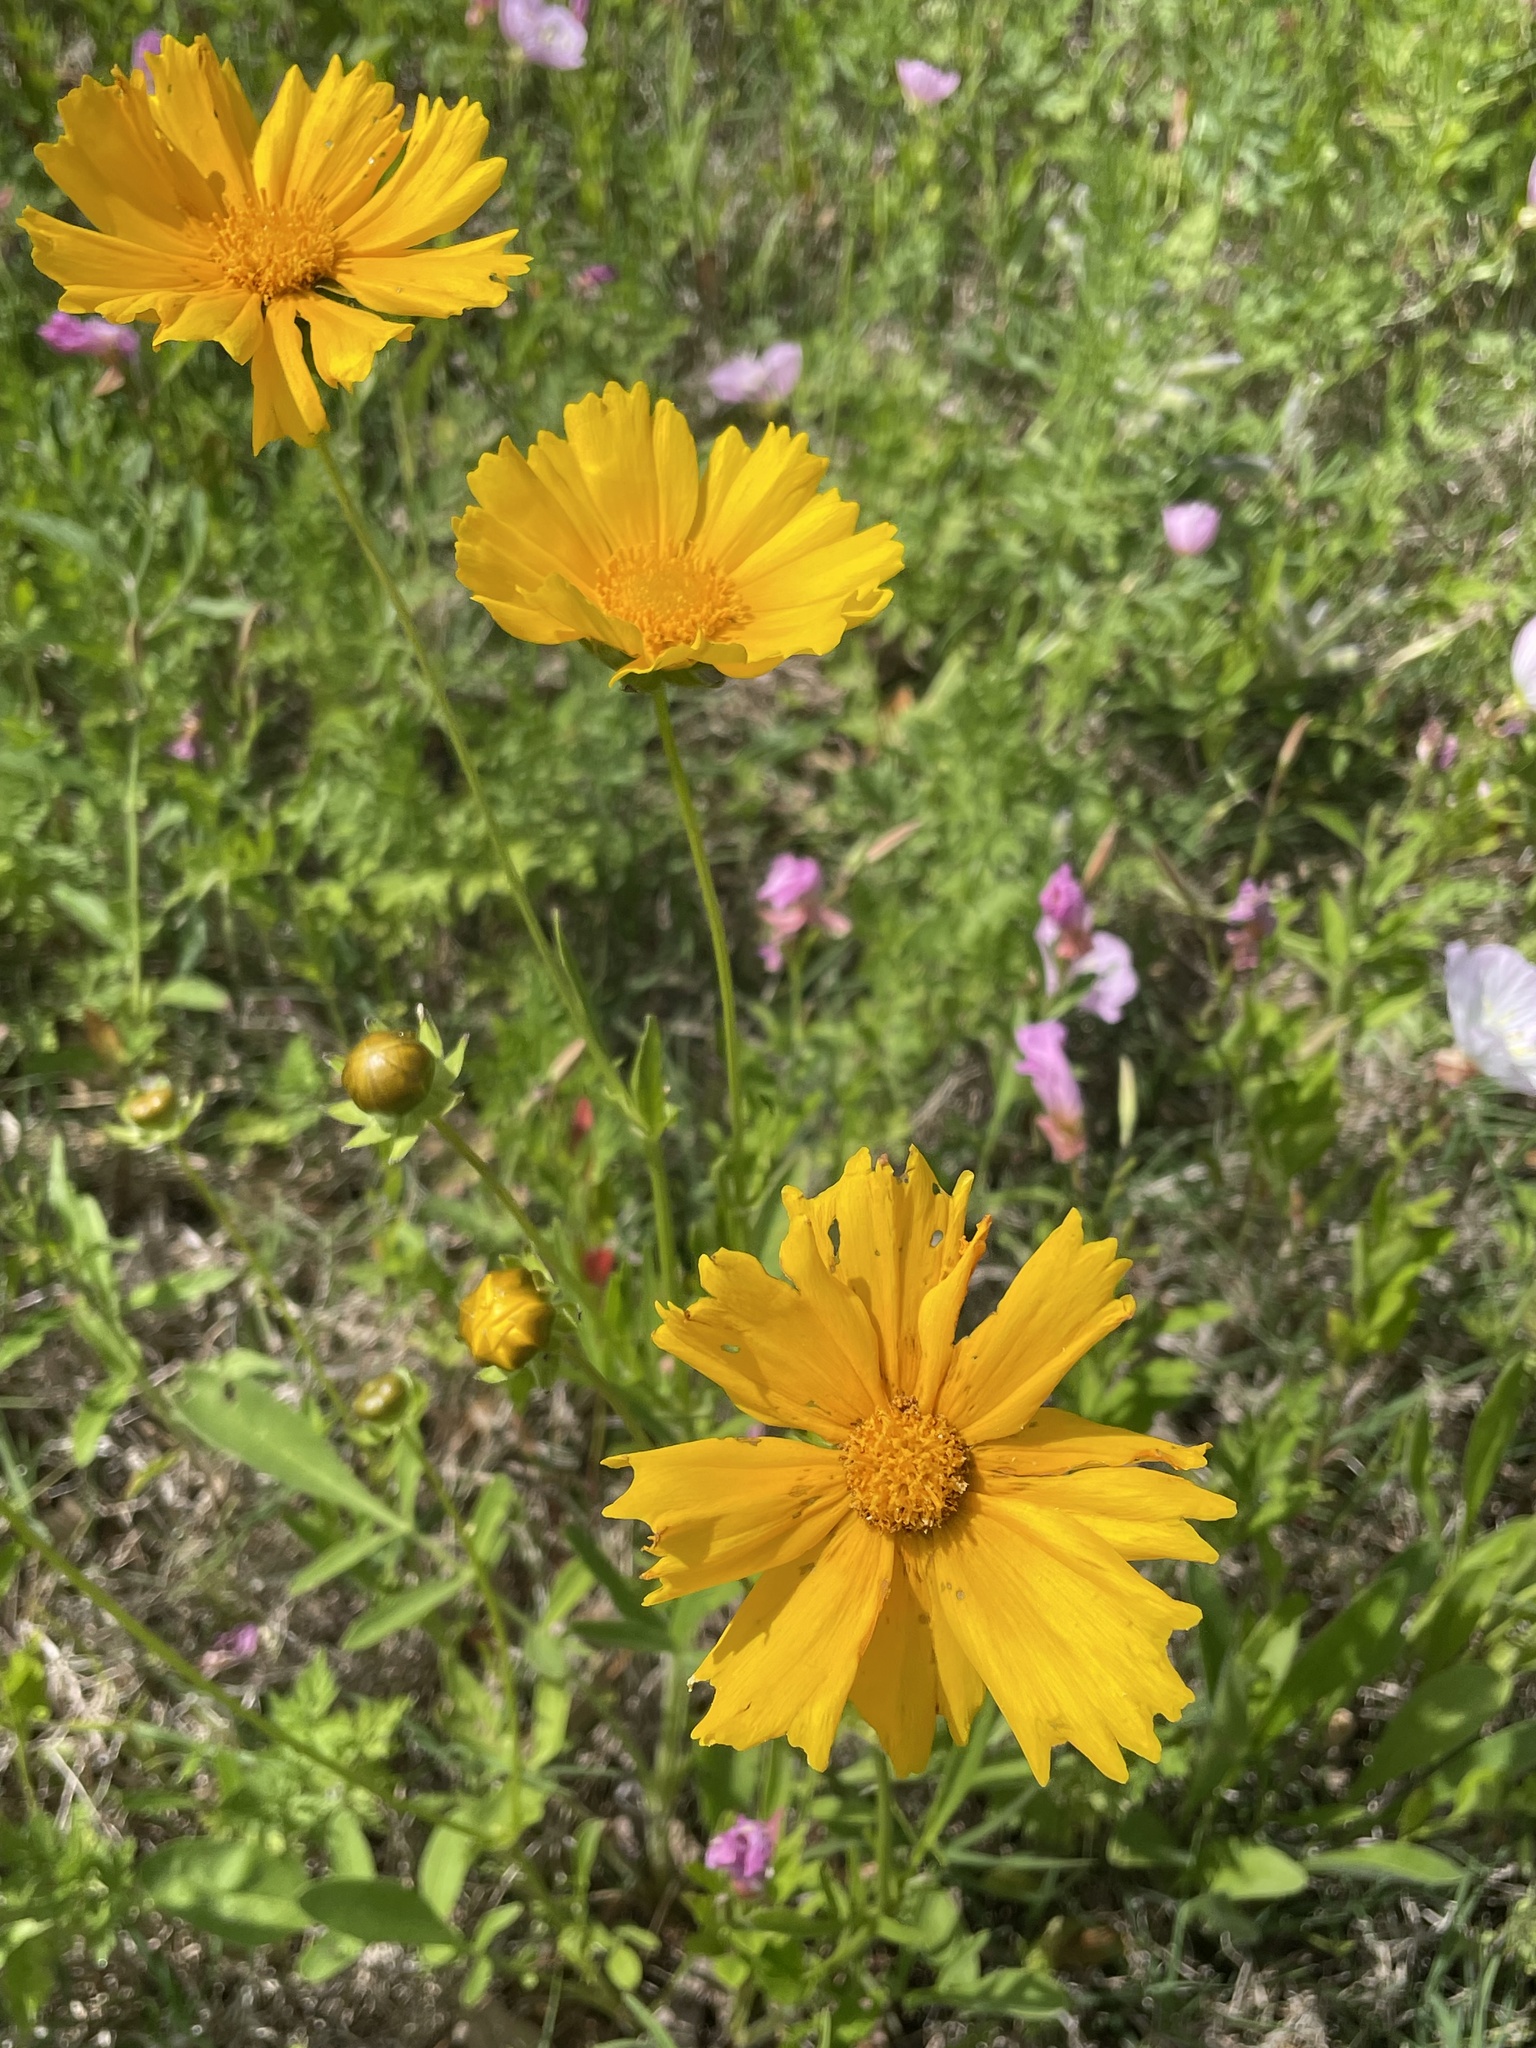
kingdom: Plantae
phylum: Tracheophyta
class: Magnoliopsida
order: Asterales
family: Asteraceae
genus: Coreopsis
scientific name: Coreopsis lanceolata
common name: Garden coreopsis
